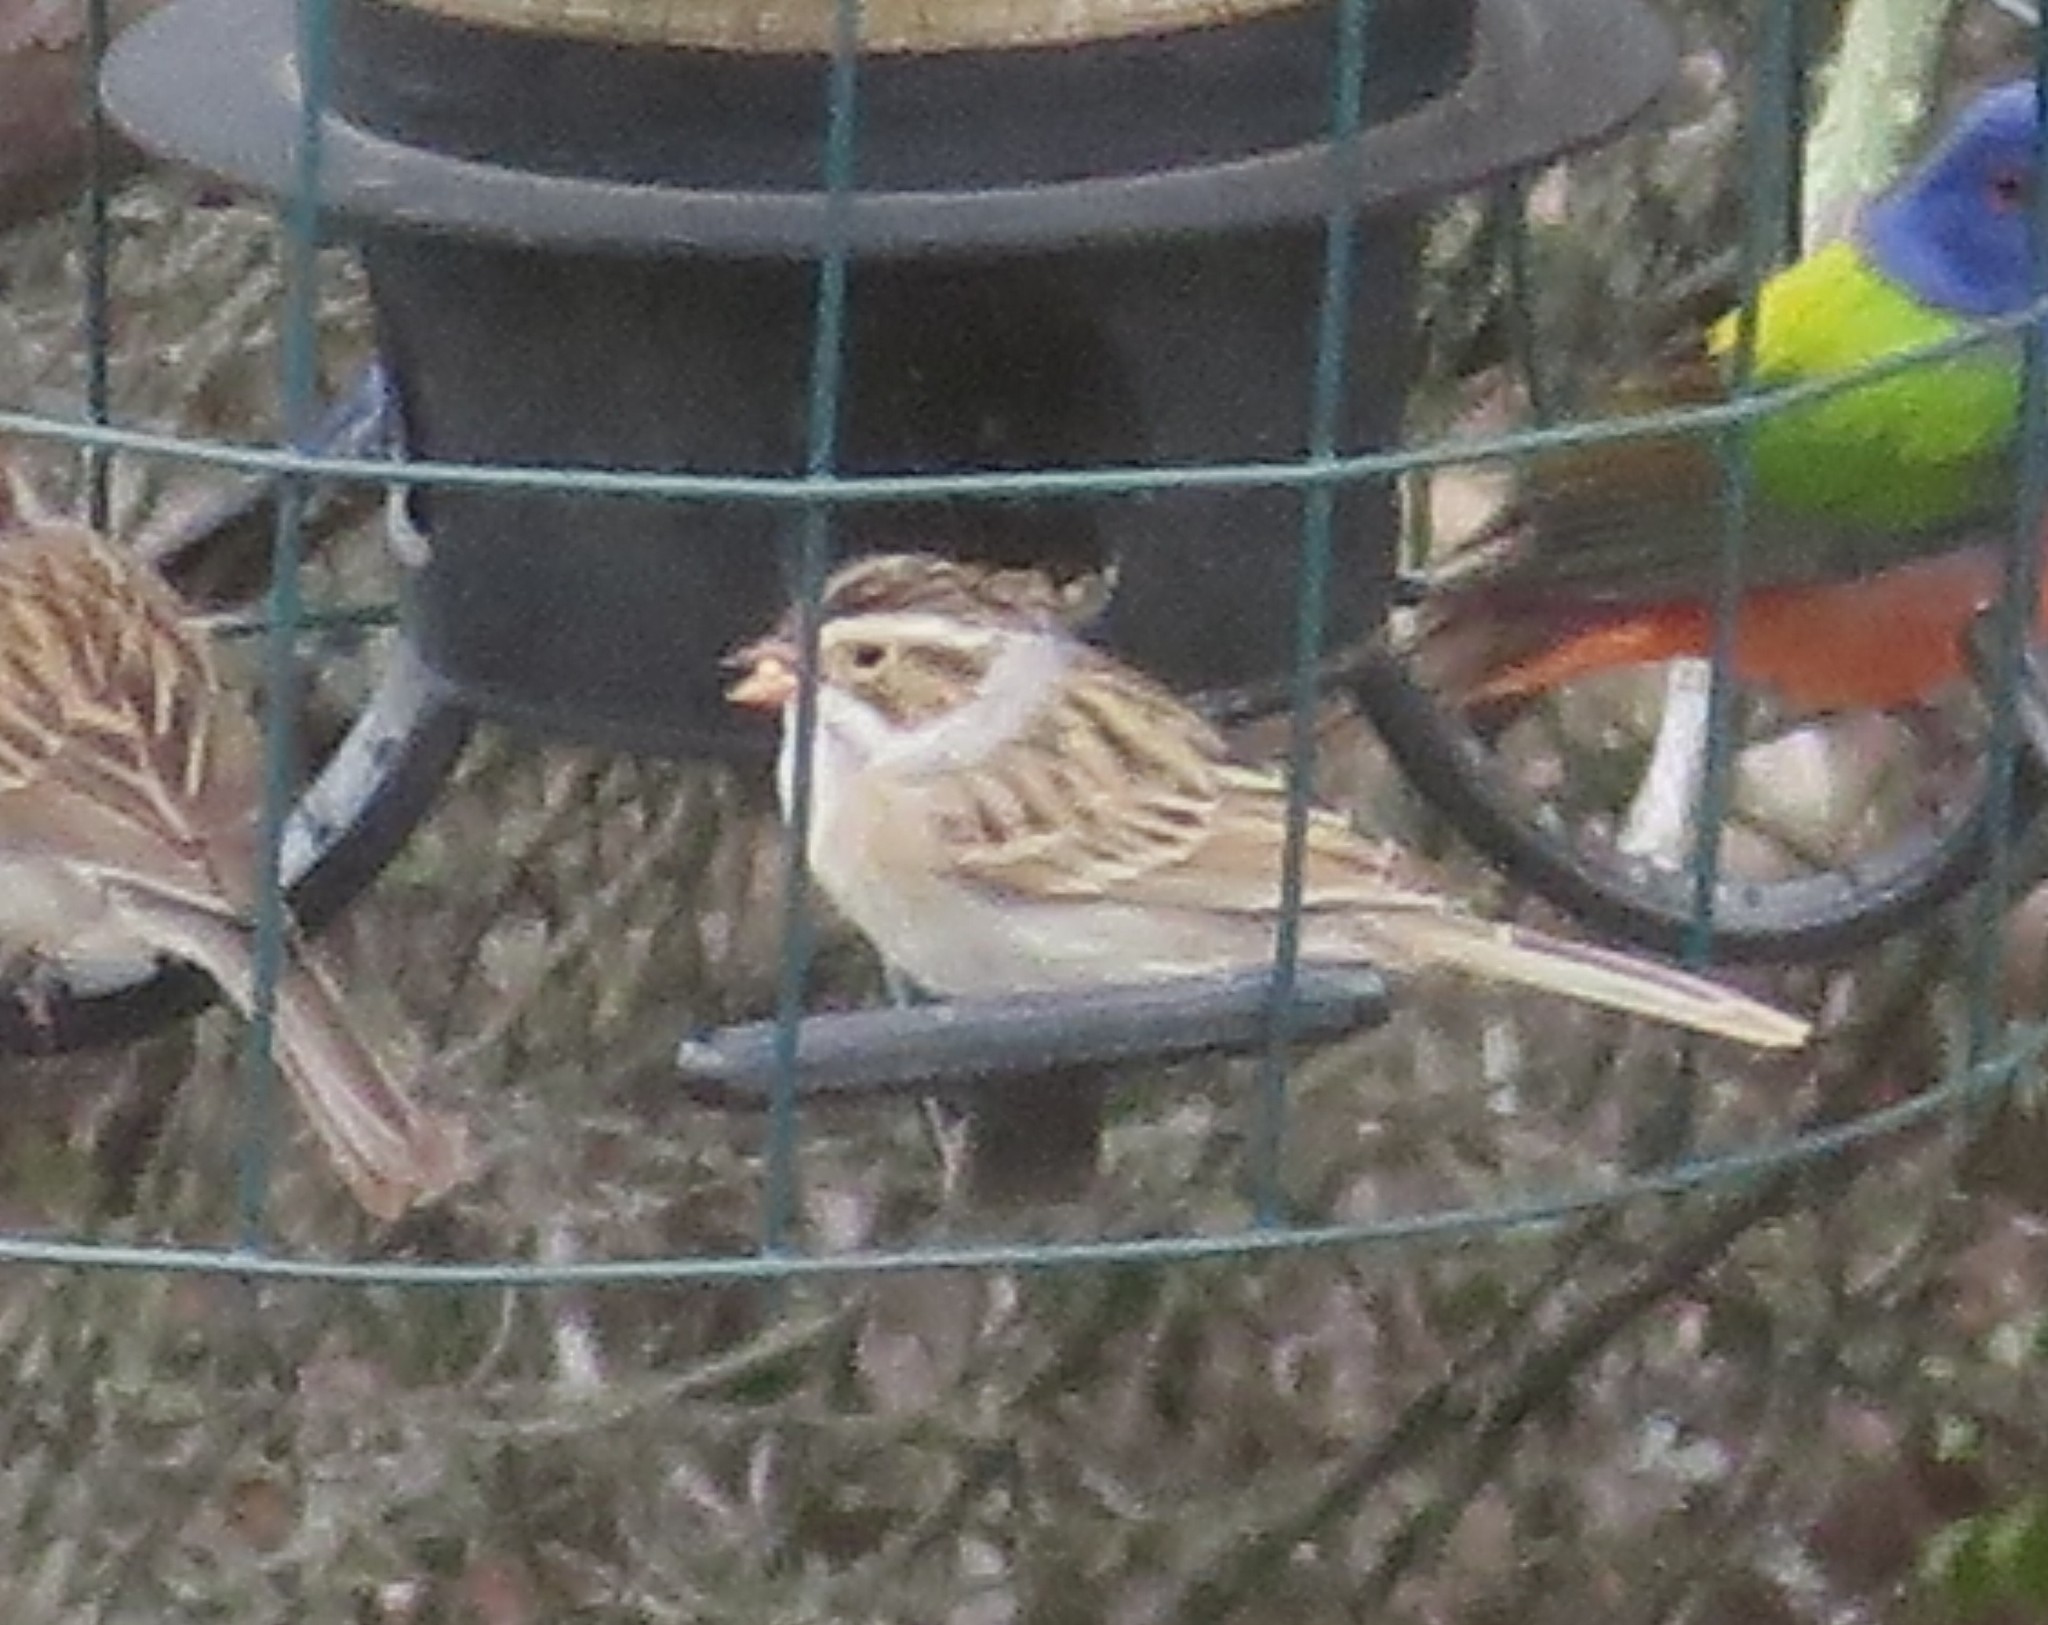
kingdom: Animalia
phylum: Chordata
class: Aves
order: Passeriformes
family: Passerellidae
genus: Spizella
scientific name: Spizella pallida
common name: Clay-colored sparrow
